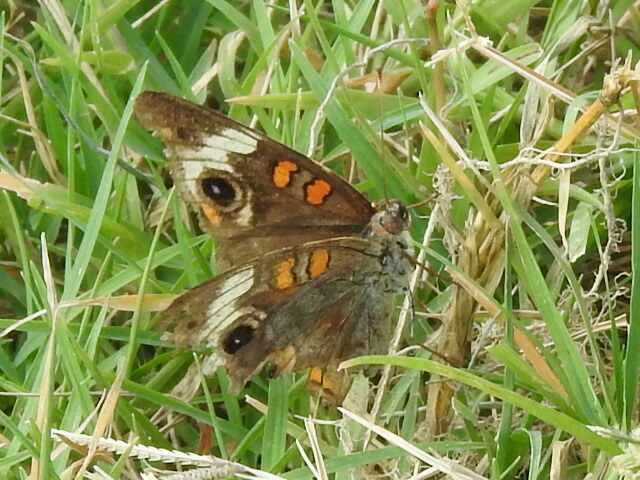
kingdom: Animalia
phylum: Arthropoda
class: Insecta
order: Lepidoptera
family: Nymphalidae
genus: Junonia
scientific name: Junonia coenia
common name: Common buckeye
